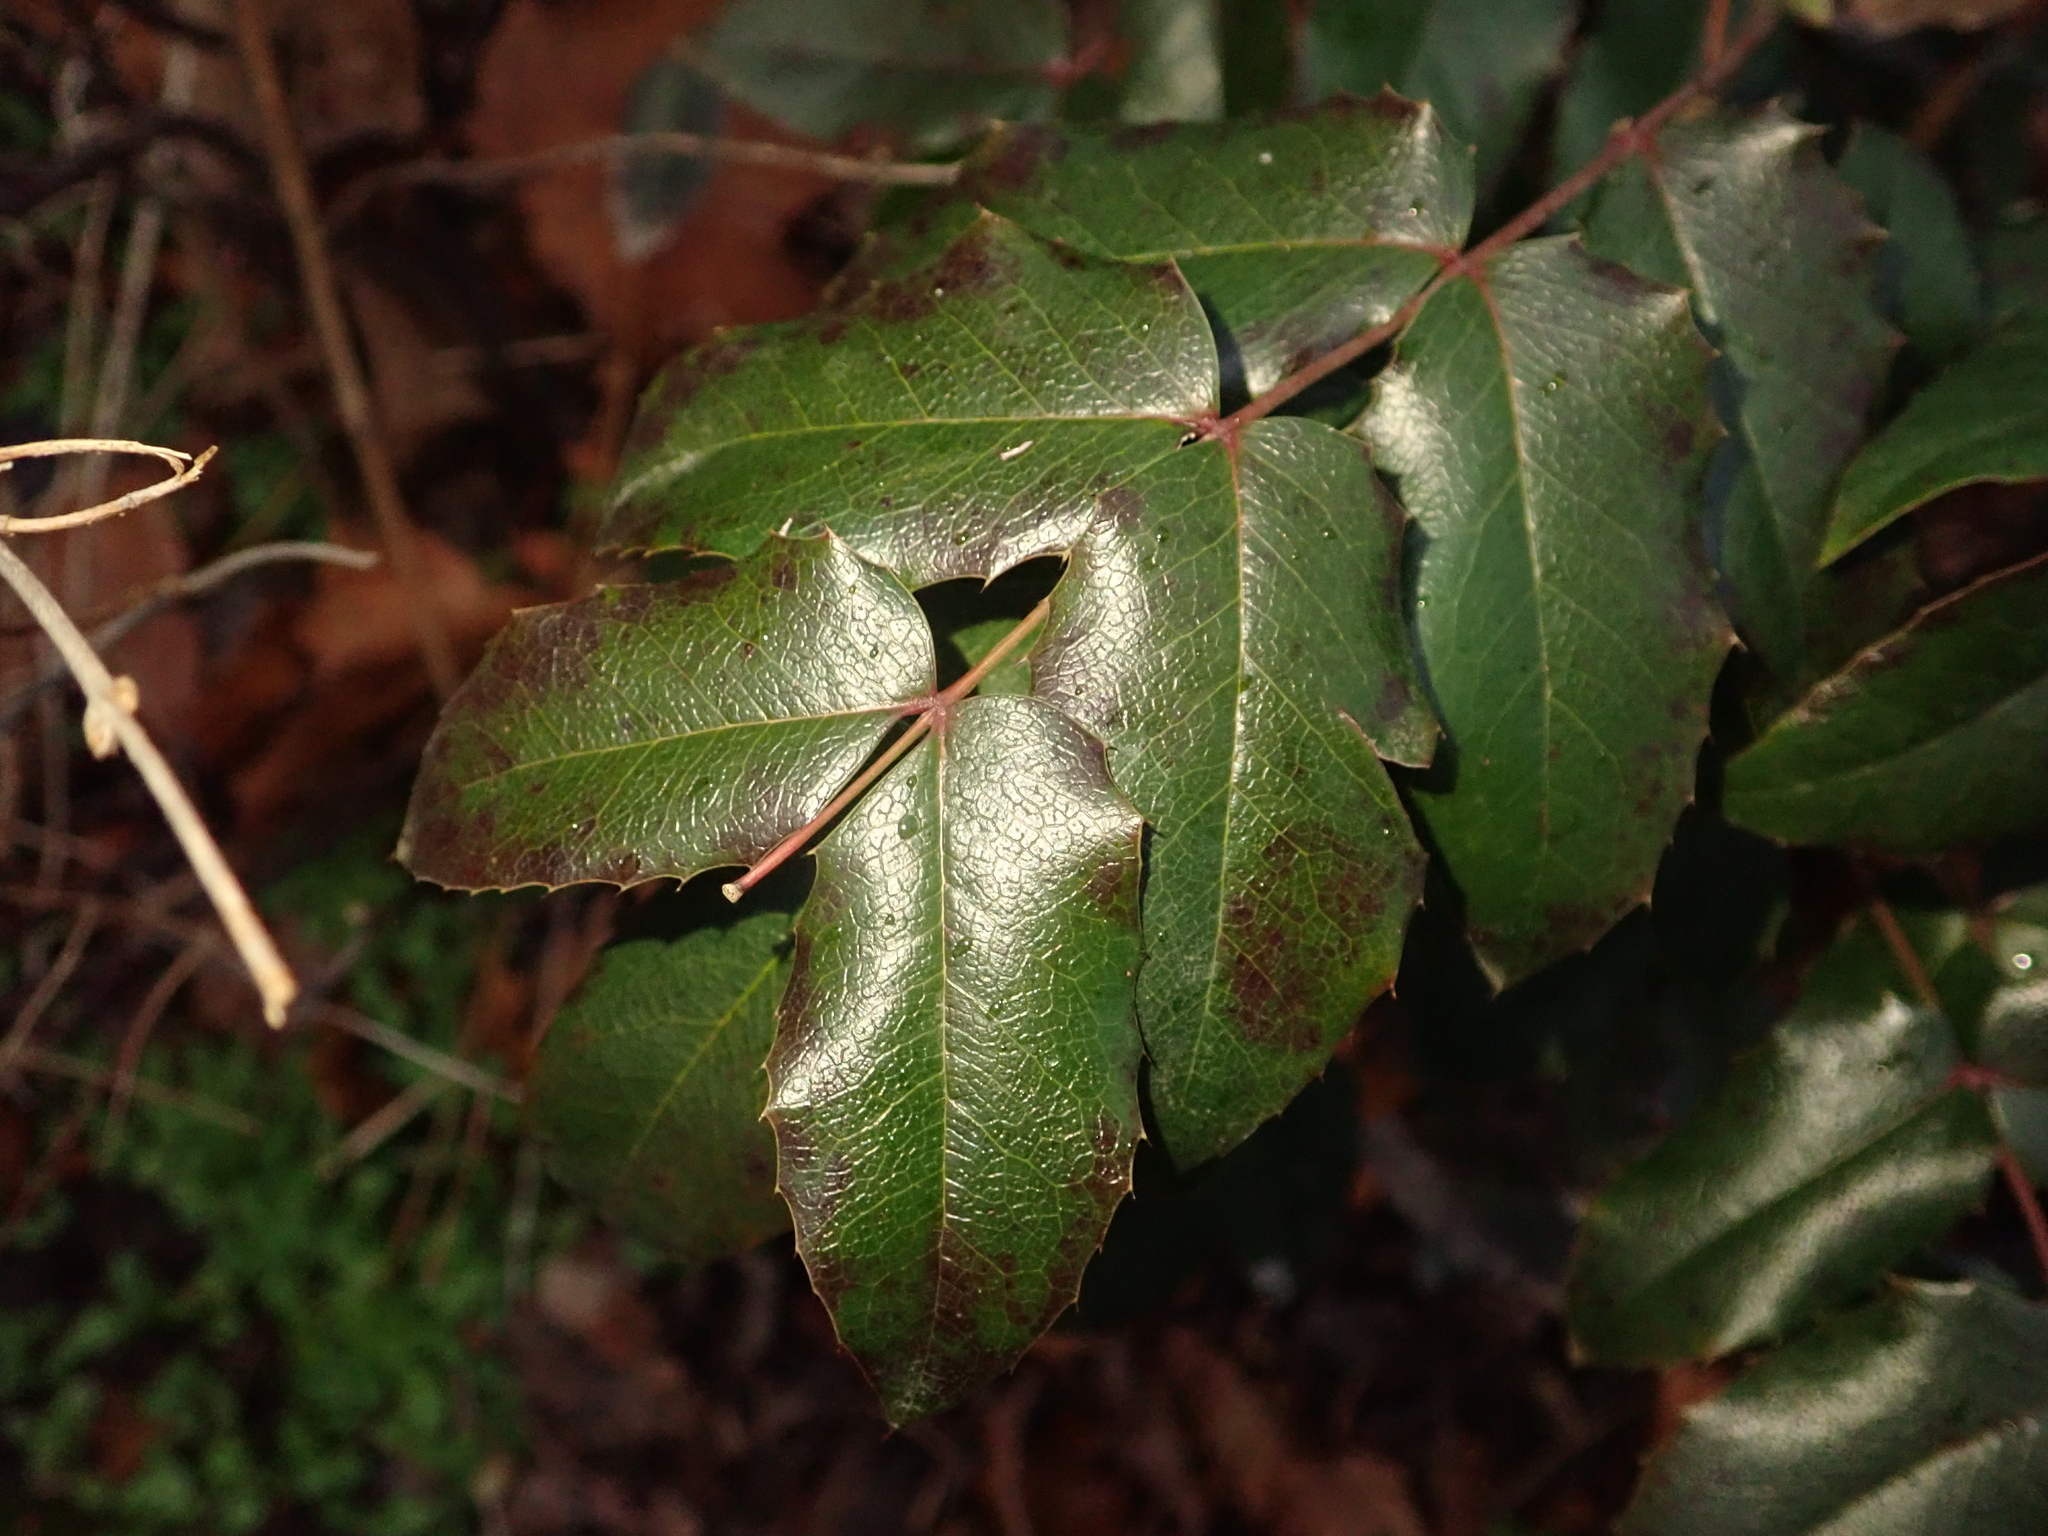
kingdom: Plantae
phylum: Tracheophyta
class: Magnoliopsida
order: Ranunculales
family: Berberidaceae
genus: Mahonia
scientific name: Mahonia aquifolium
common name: Oregon-grape
